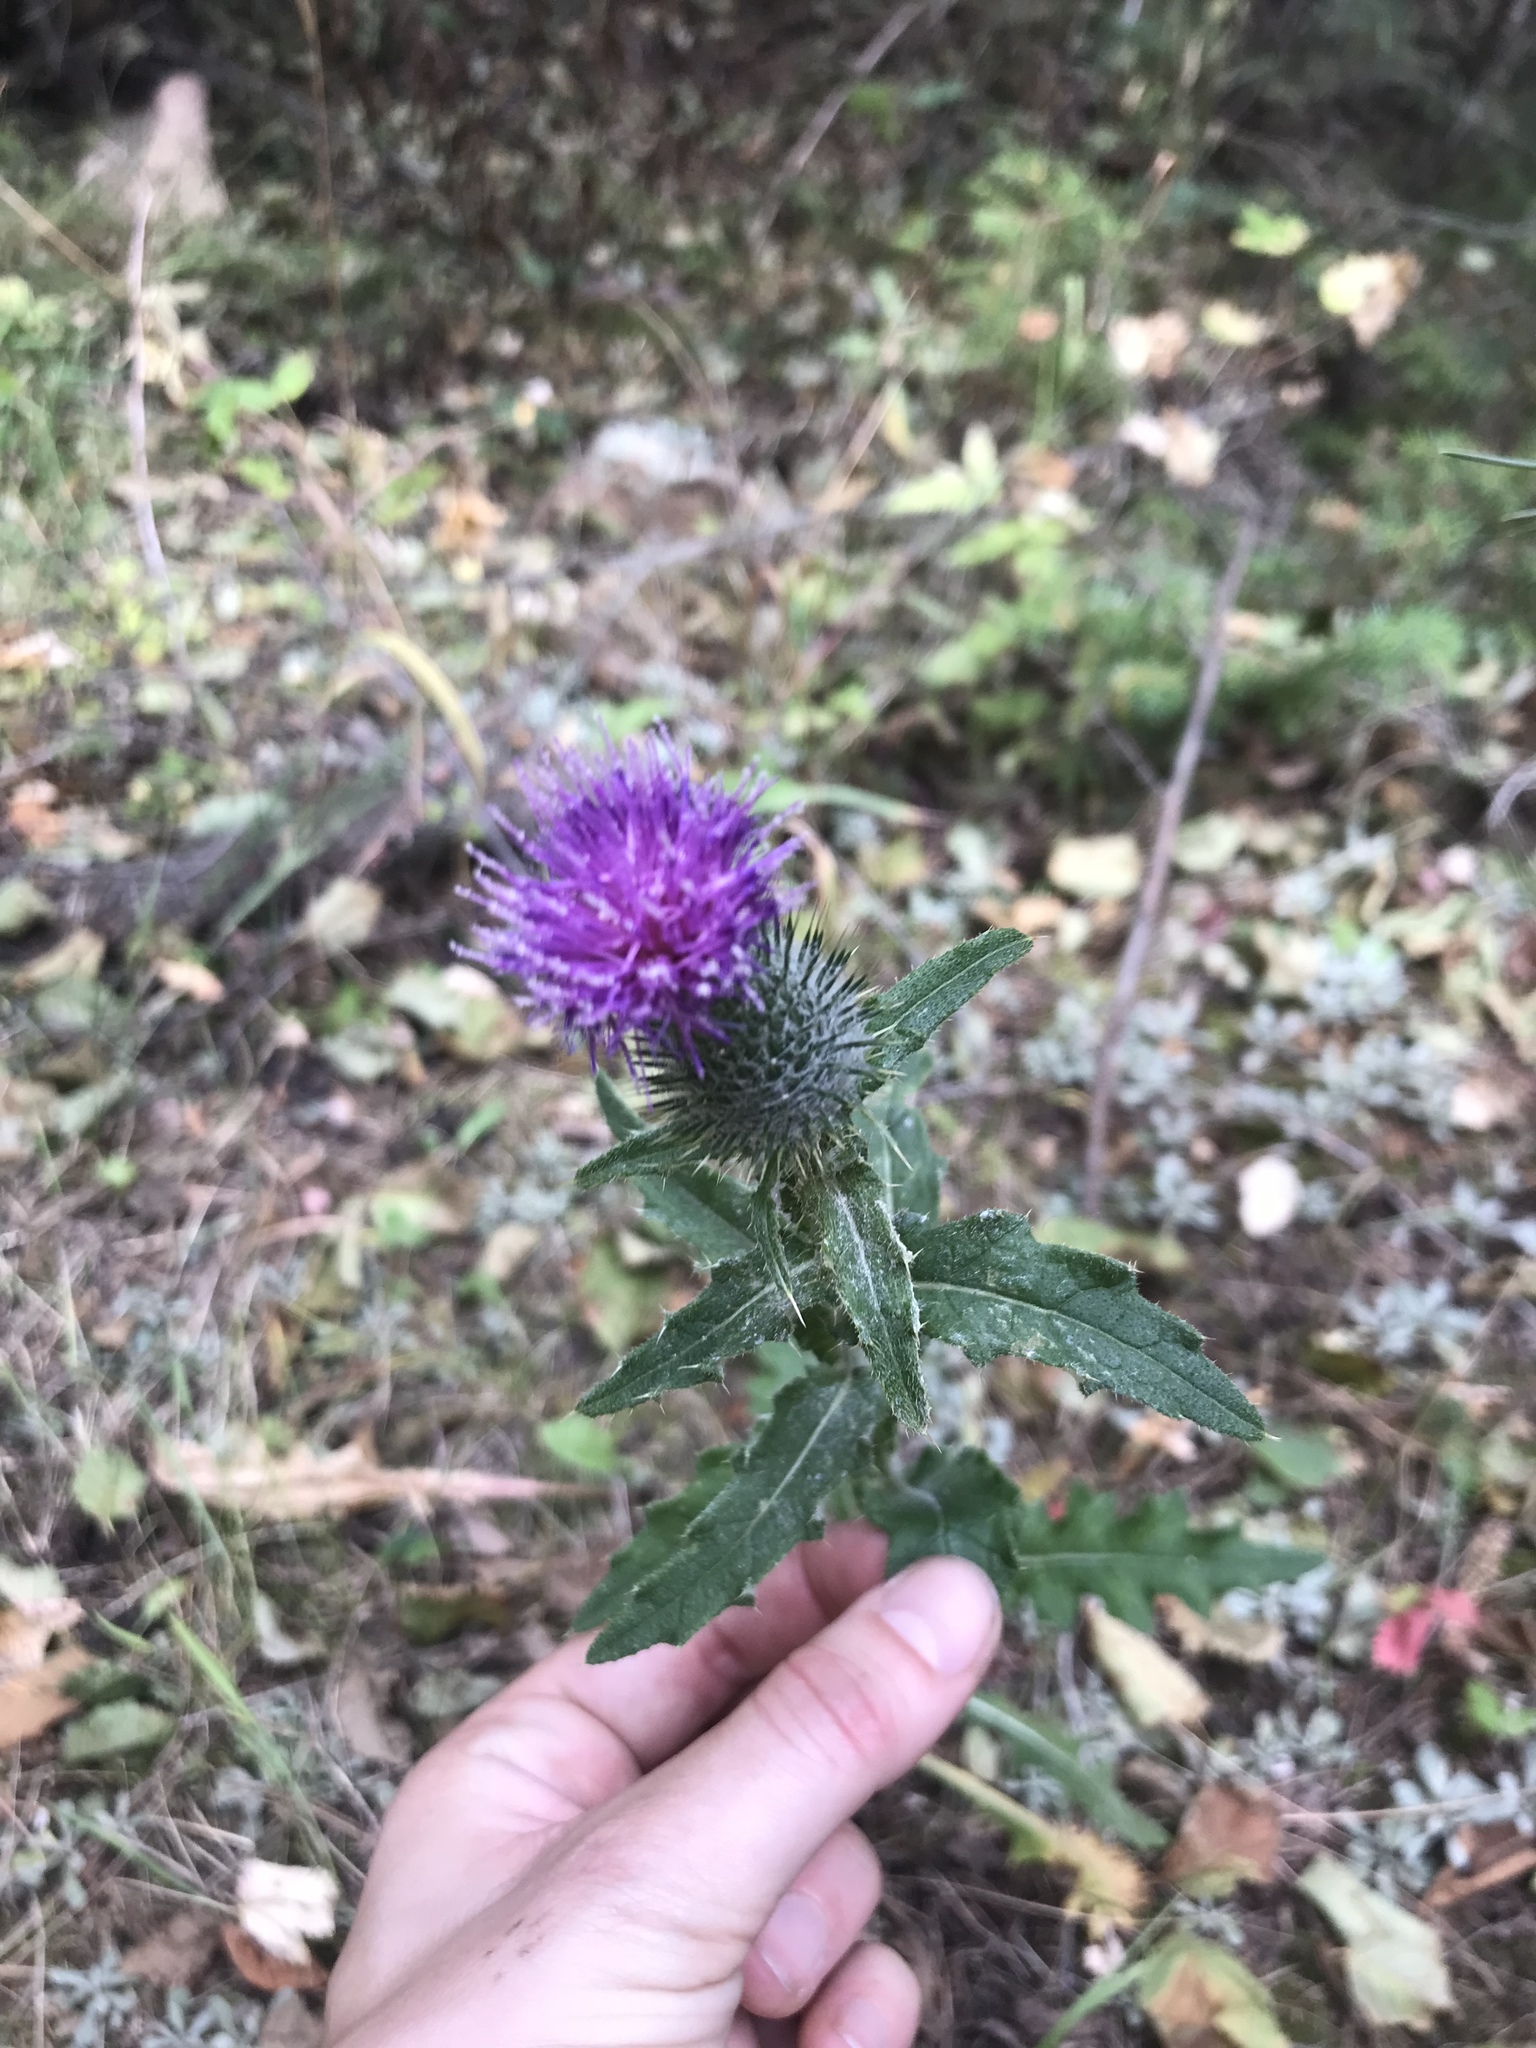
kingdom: Plantae
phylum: Tracheophyta
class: Magnoliopsida
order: Asterales
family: Asteraceae
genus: Cirsium
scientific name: Cirsium vulgare
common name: Bull thistle
